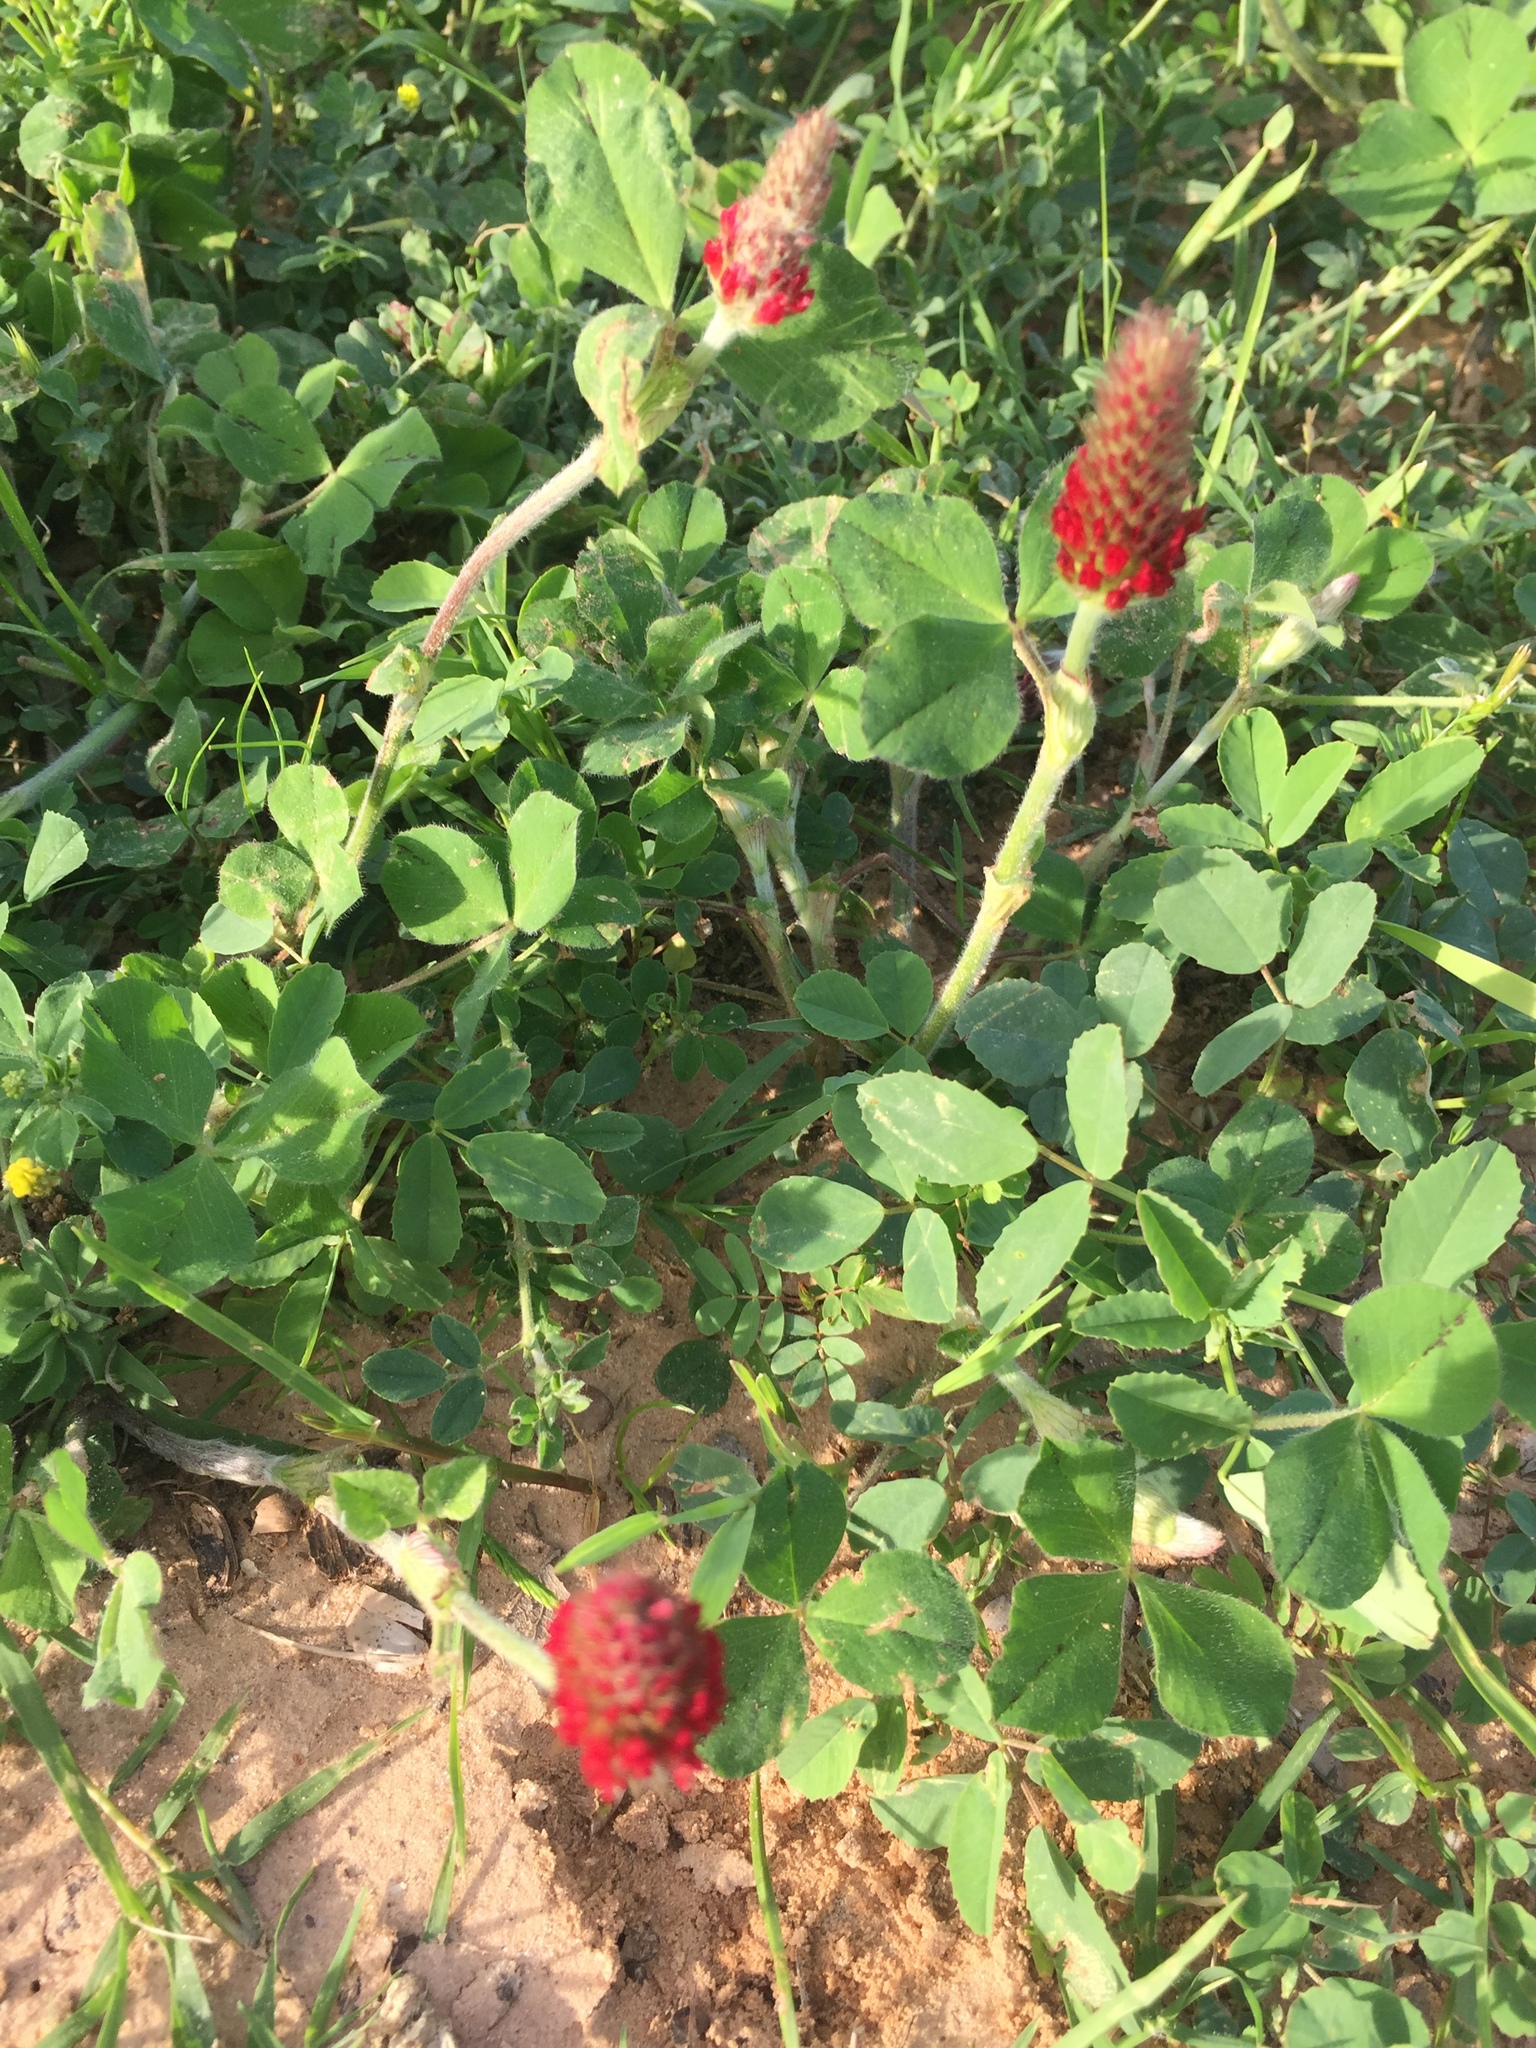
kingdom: Plantae
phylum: Tracheophyta
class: Magnoliopsida
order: Fabales
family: Fabaceae
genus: Trifolium
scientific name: Trifolium incarnatum
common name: Crimson clover
